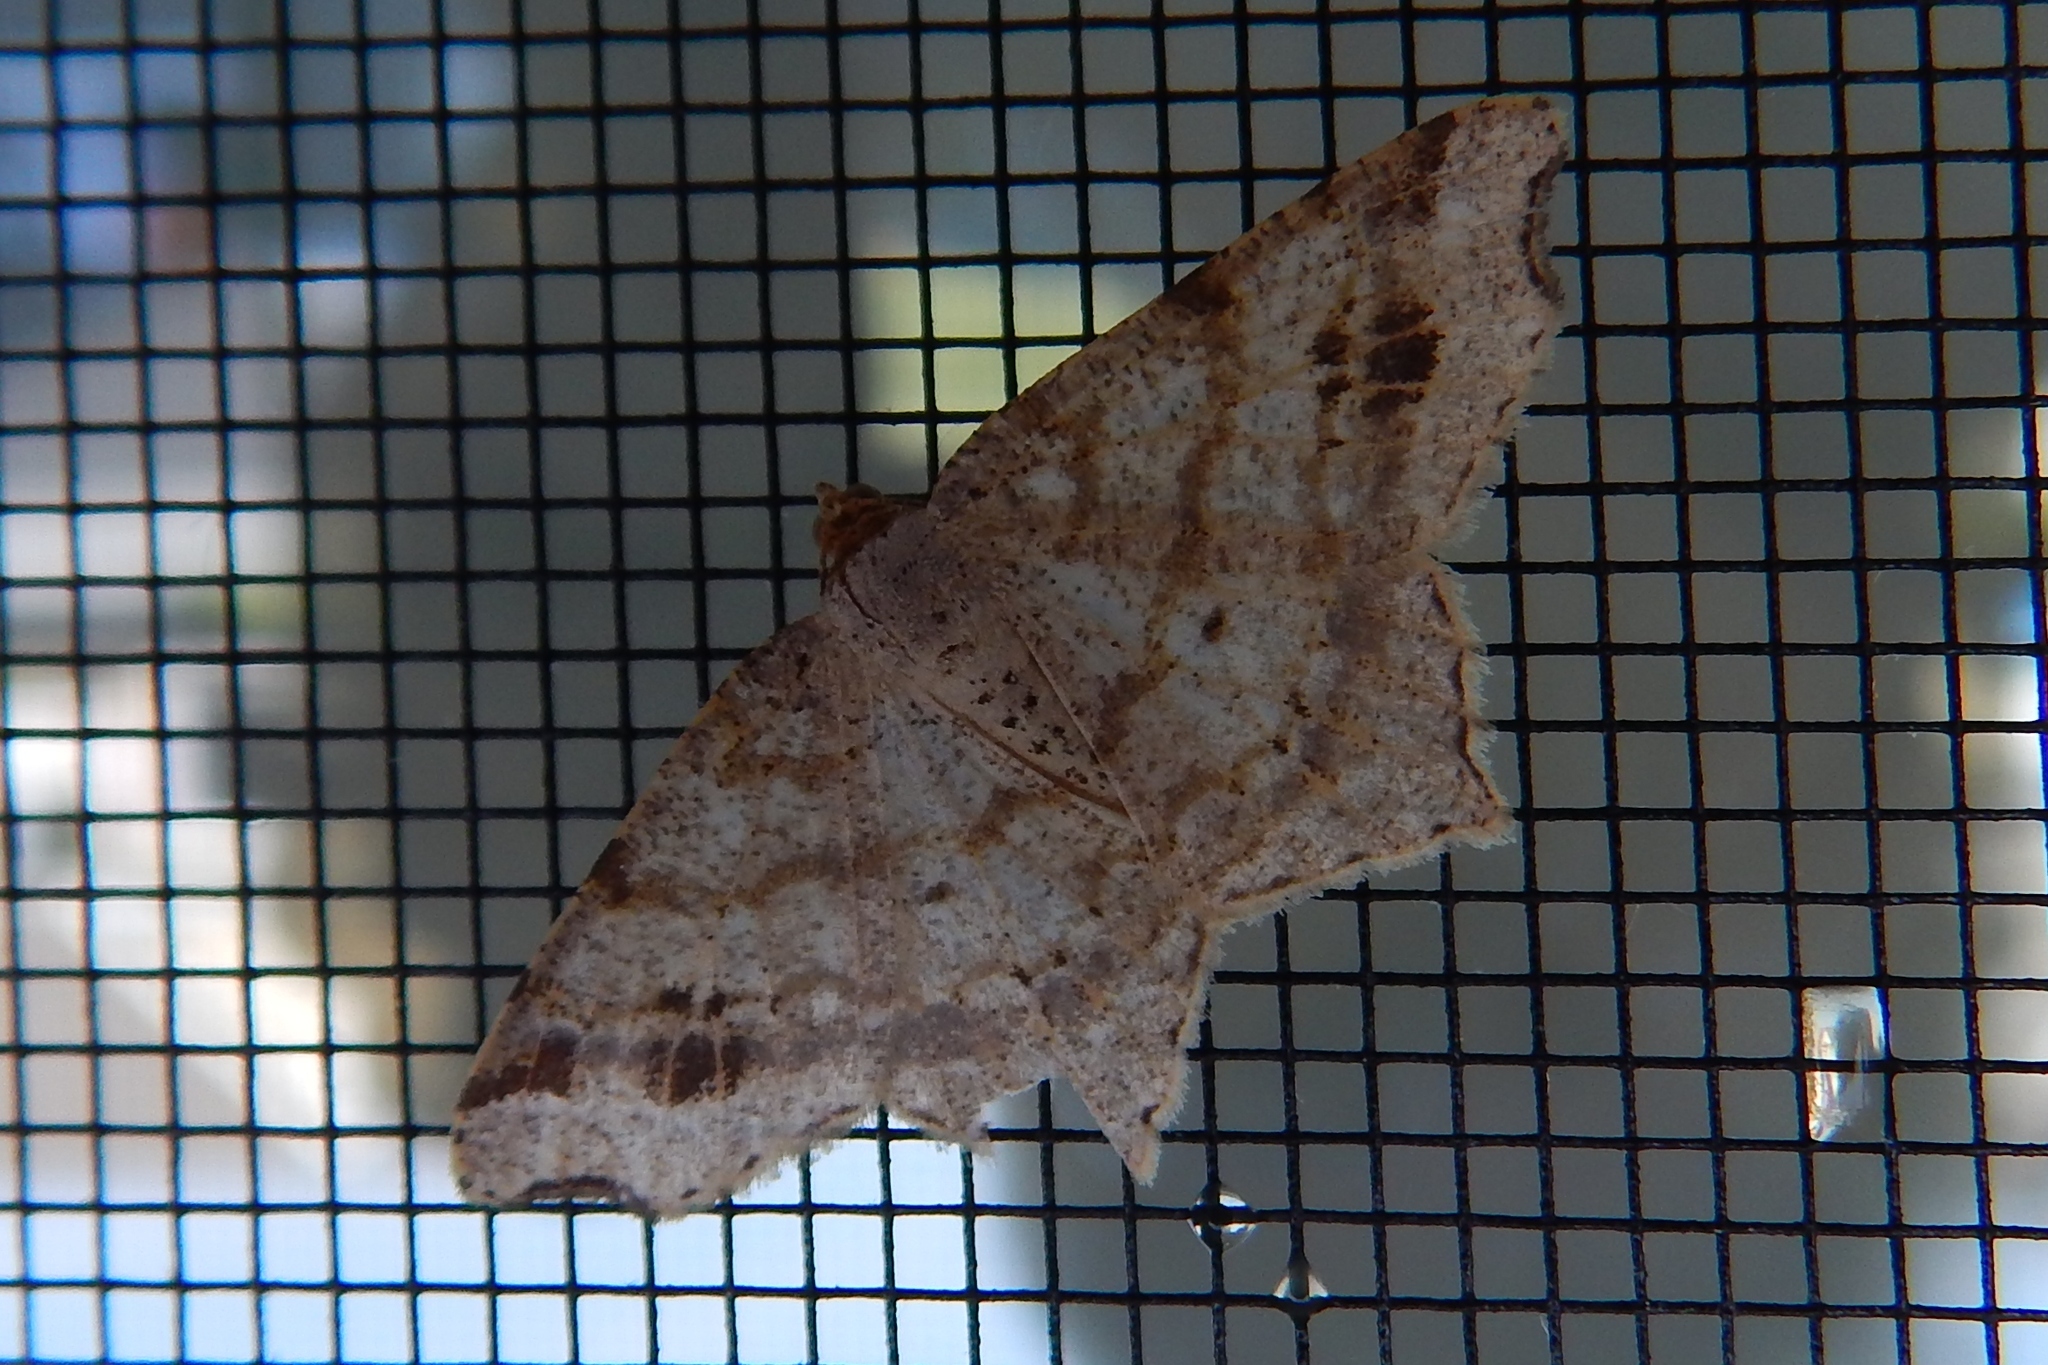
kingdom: Animalia
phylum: Arthropoda
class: Insecta
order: Lepidoptera
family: Geometridae
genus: Macaria
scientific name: Macaria aemulataria
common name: Common angle
